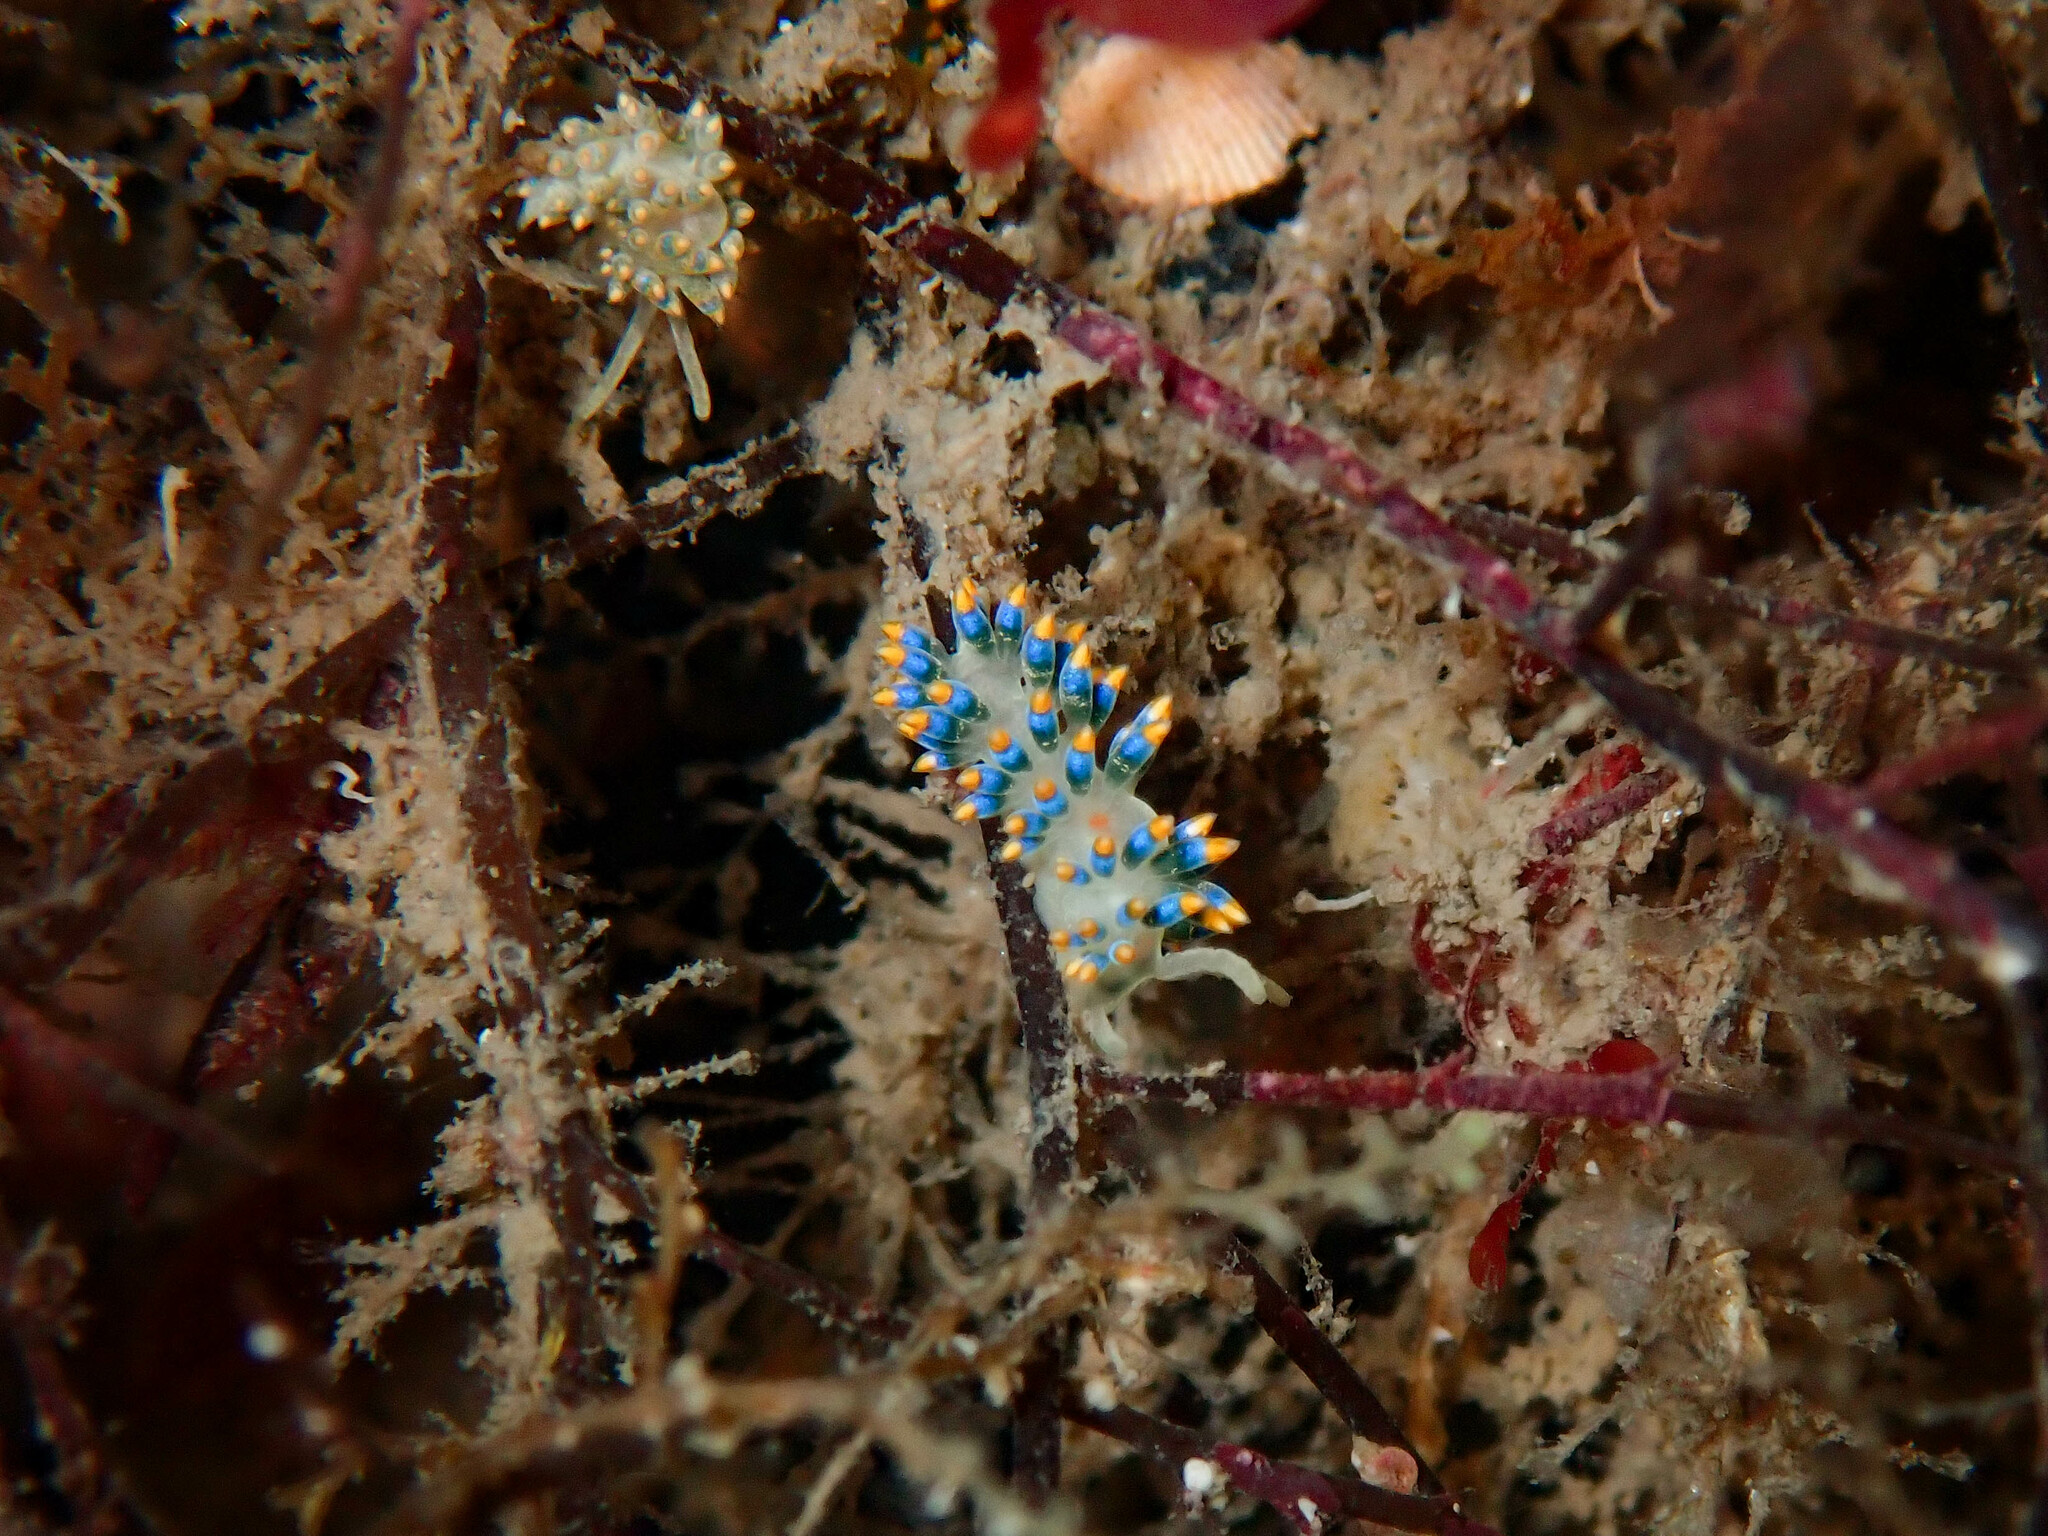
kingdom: Animalia
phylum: Mollusca
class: Gastropoda
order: Nudibranchia
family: Trinchesiidae
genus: Trinchesia
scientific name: Trinchesia cuanensis
